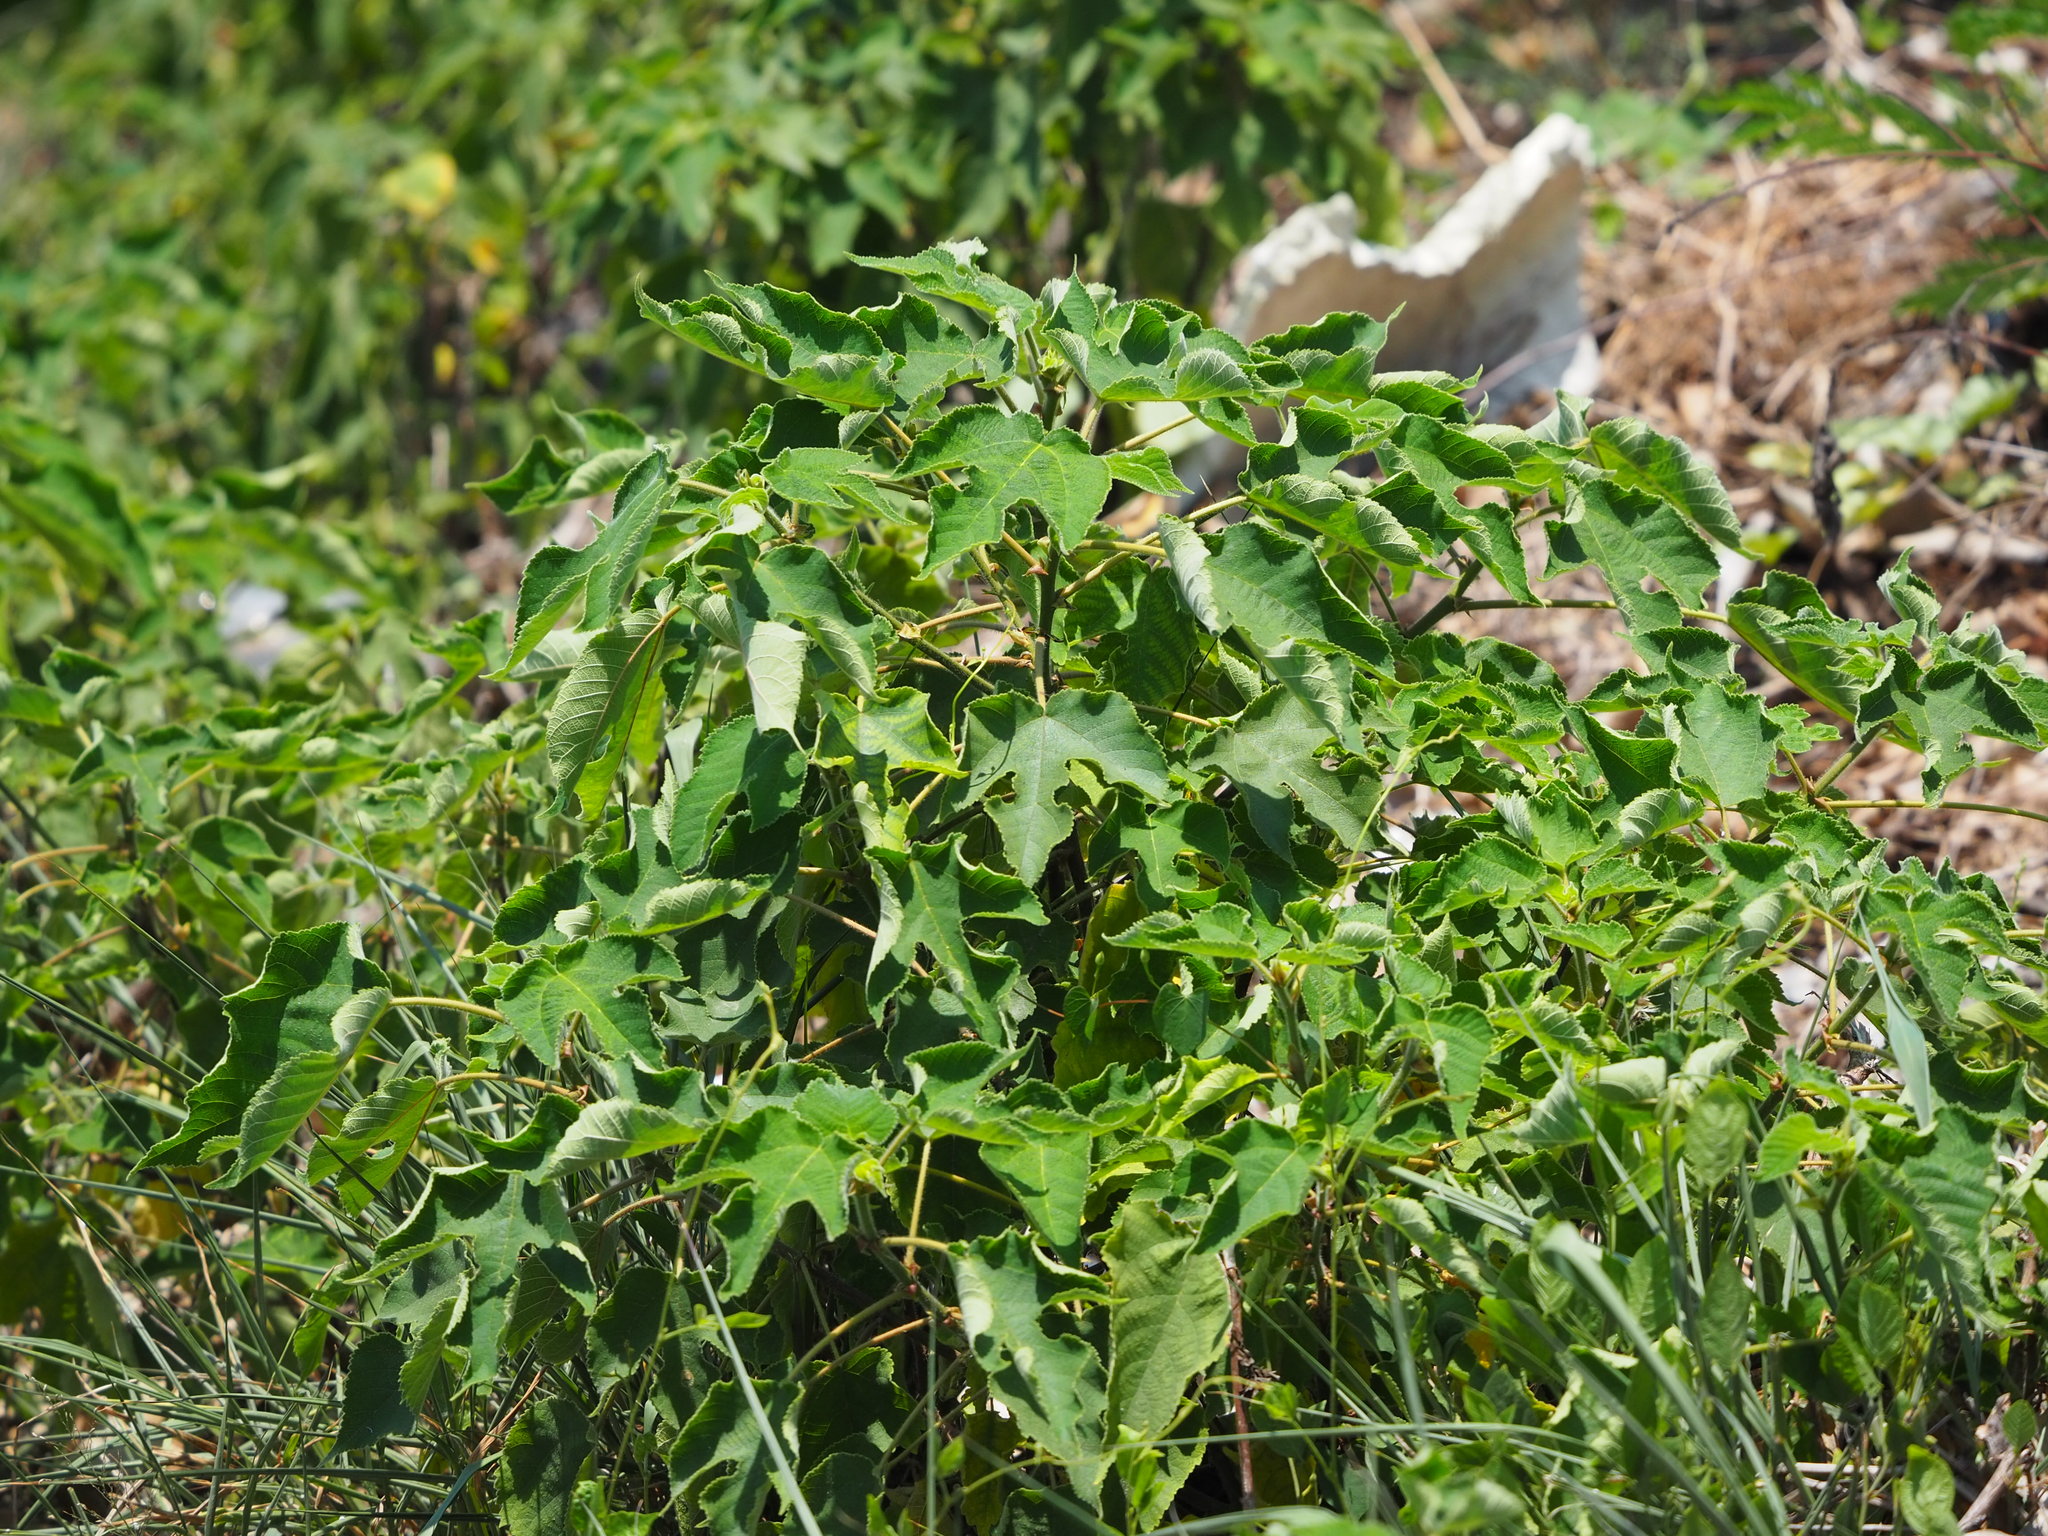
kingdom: Plantae
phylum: Tracheophyta
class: Magnoliopsida
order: Rosales
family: Moraceae
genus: Broussonetia
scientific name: Broussonetia papyrifera
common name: Paper mulberry
